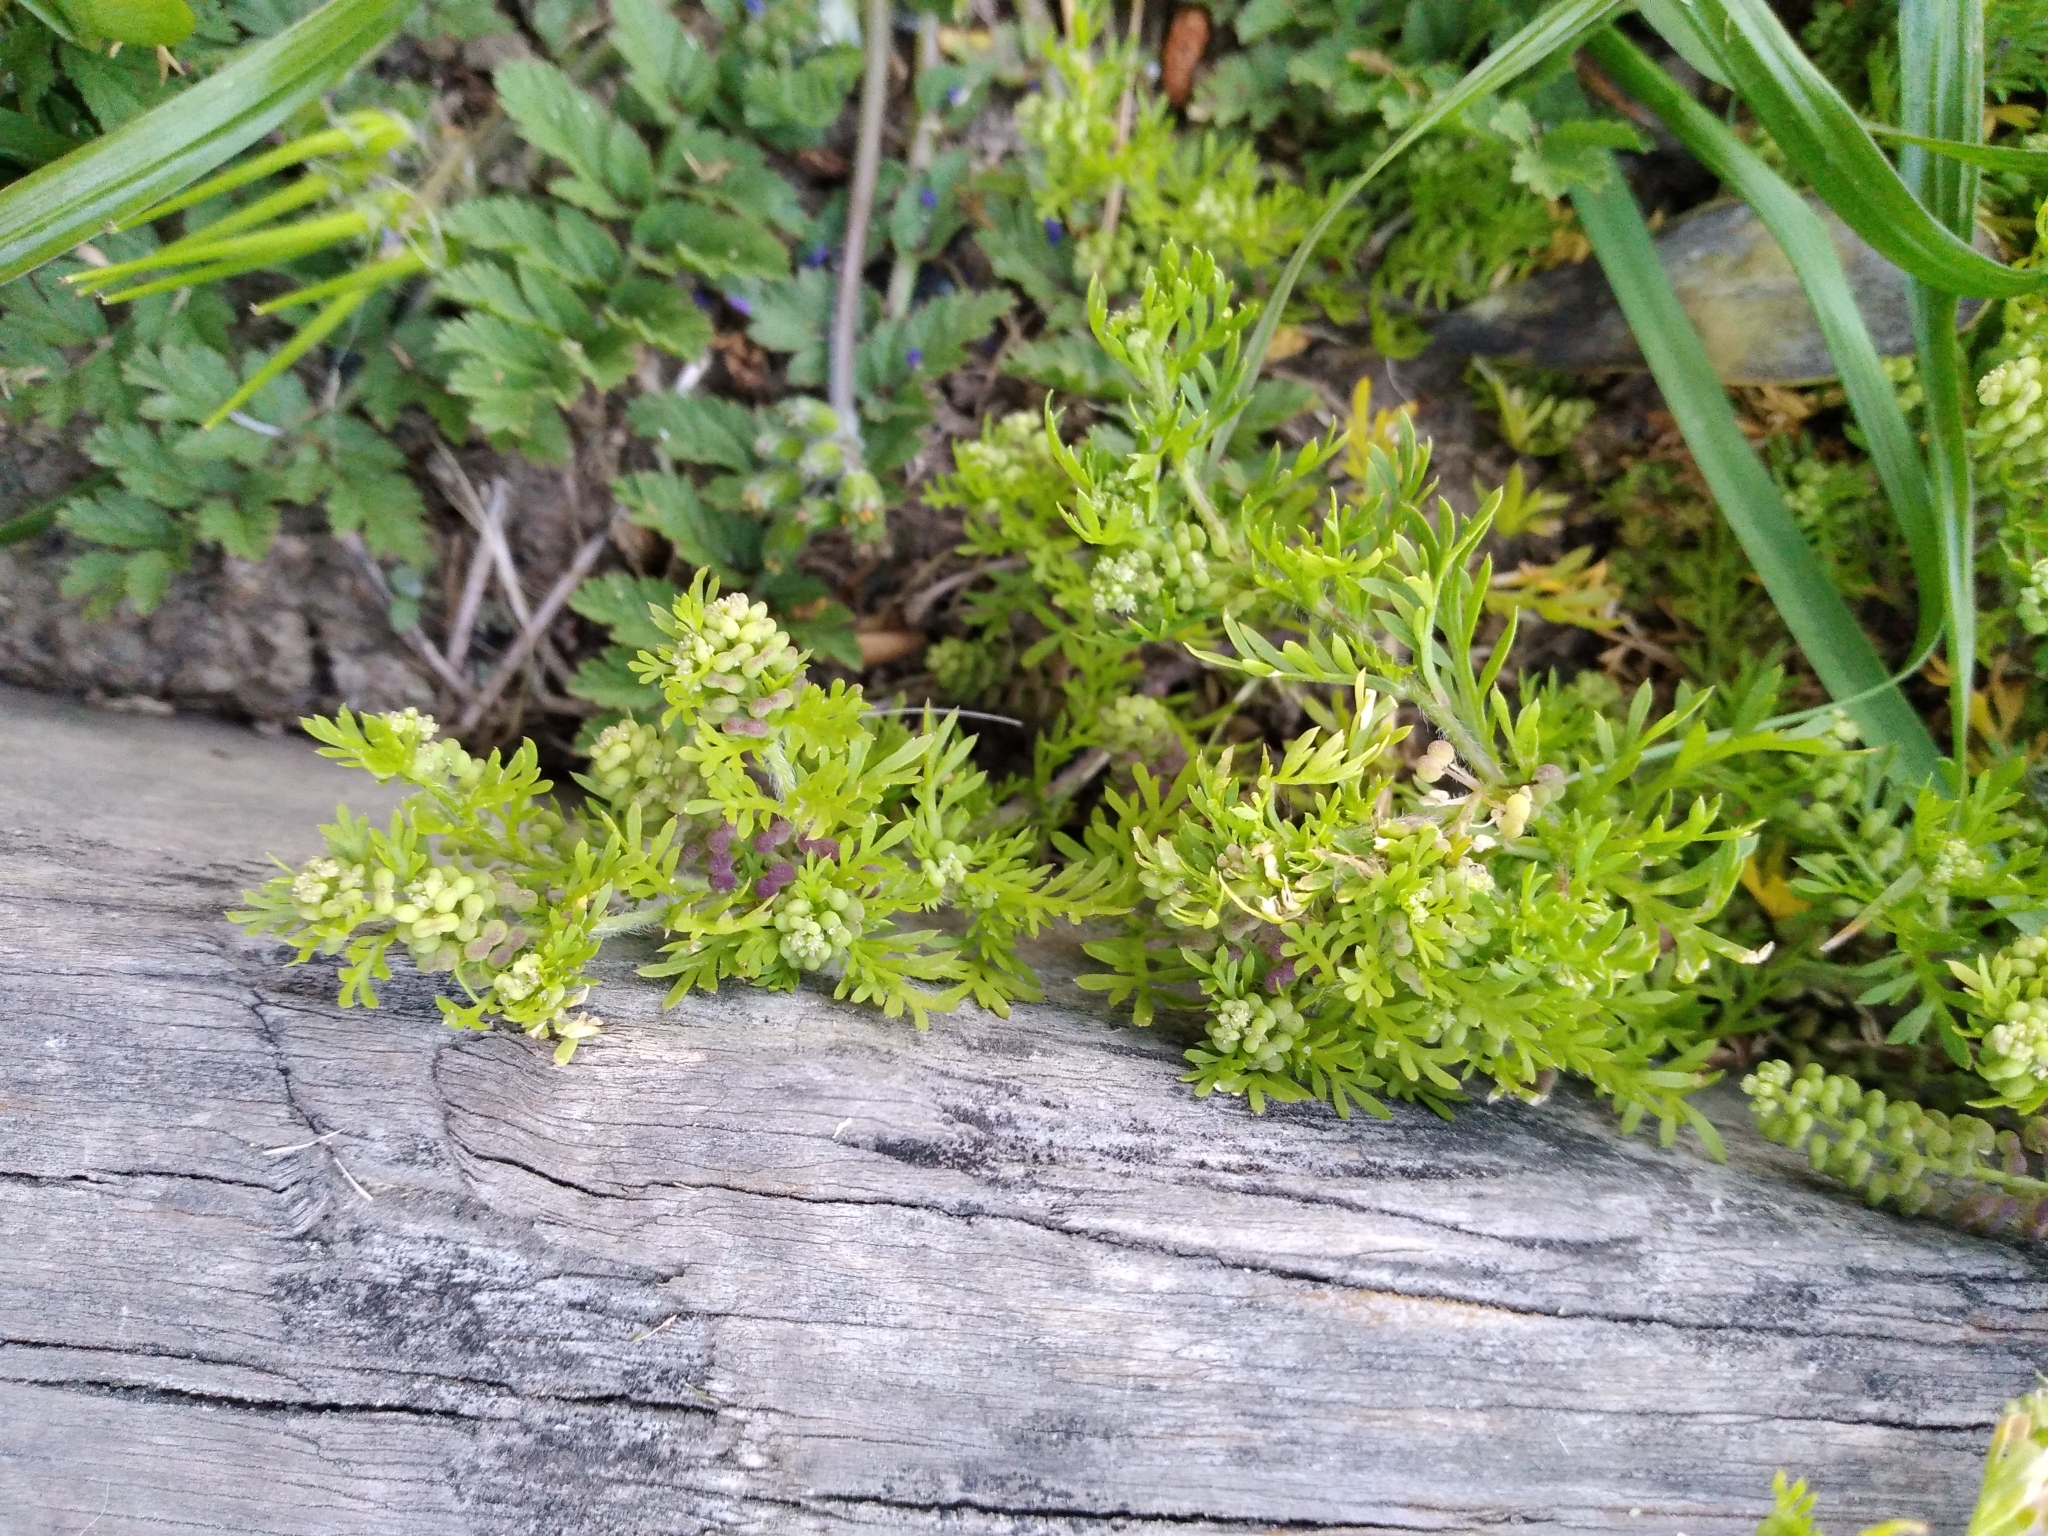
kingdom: Plantae
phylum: Tracheophyta
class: Magnoliopsida
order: Brassicales
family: Brassicaceae
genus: Lepidium
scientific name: Lepidium didymum
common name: Lesser swinecress
